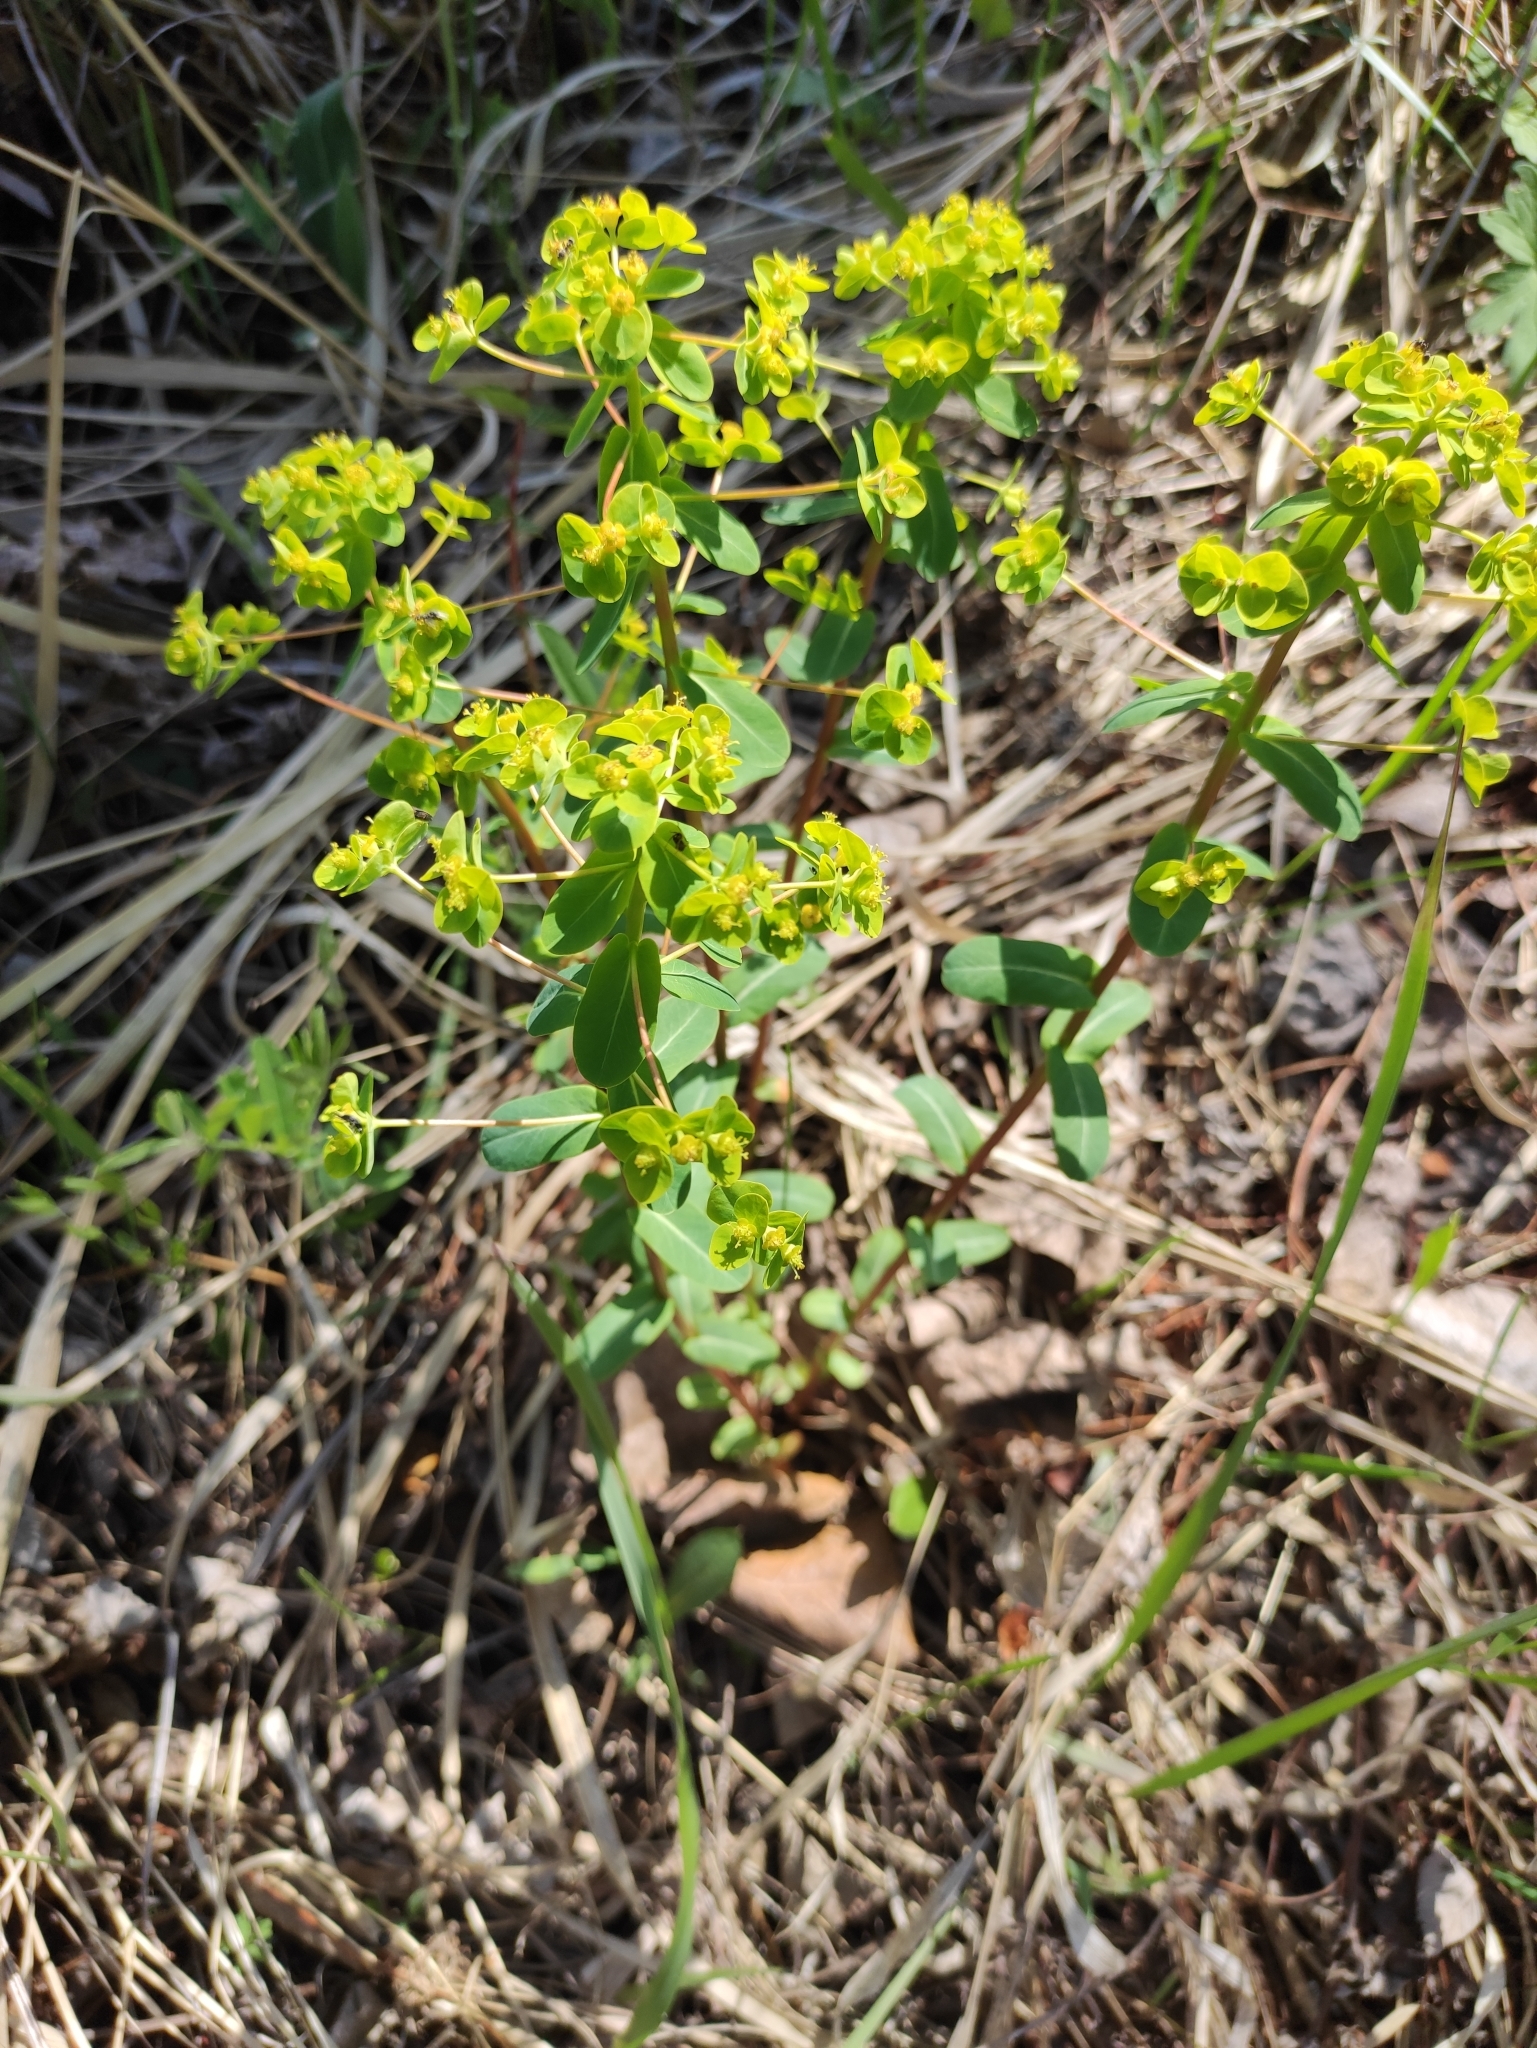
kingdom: Plantae
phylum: Tracheophyta
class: Magnoliopsida
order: Malpighiales
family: Euphorbiaceae
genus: Euphorbia
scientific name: Euphorbia jenisseiensis
